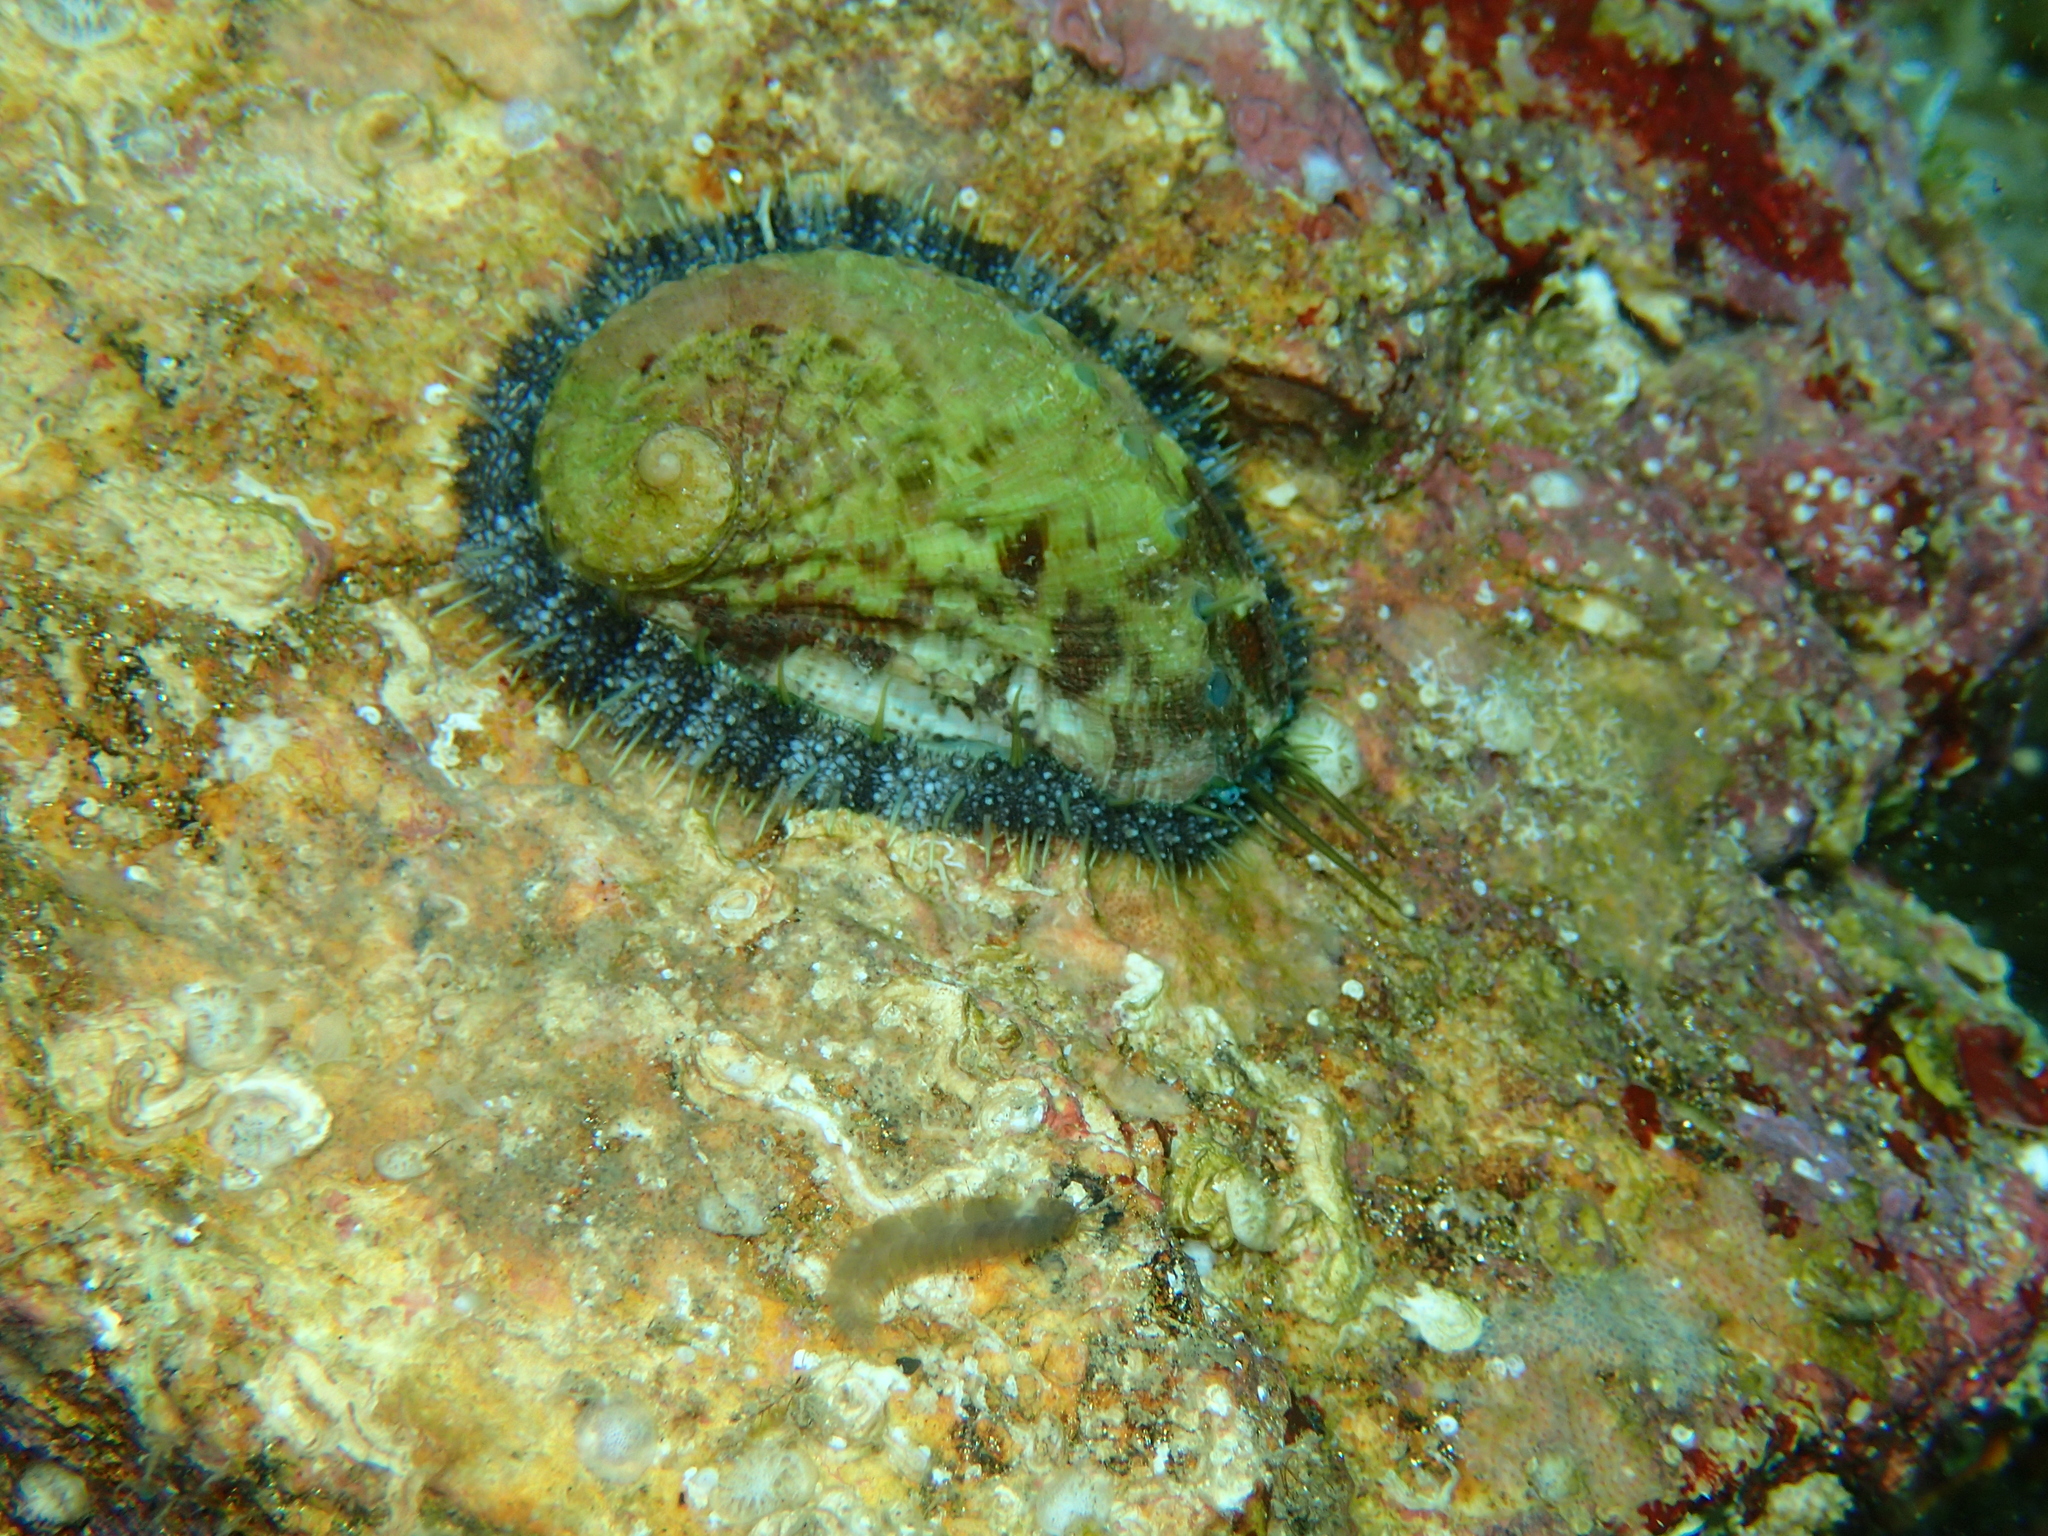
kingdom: Animalia
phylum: Mollusca
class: Gastropoda
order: Lepetellida
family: Haliotidae
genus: Haliotis
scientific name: Haliotis tuberculata
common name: Green ormer
